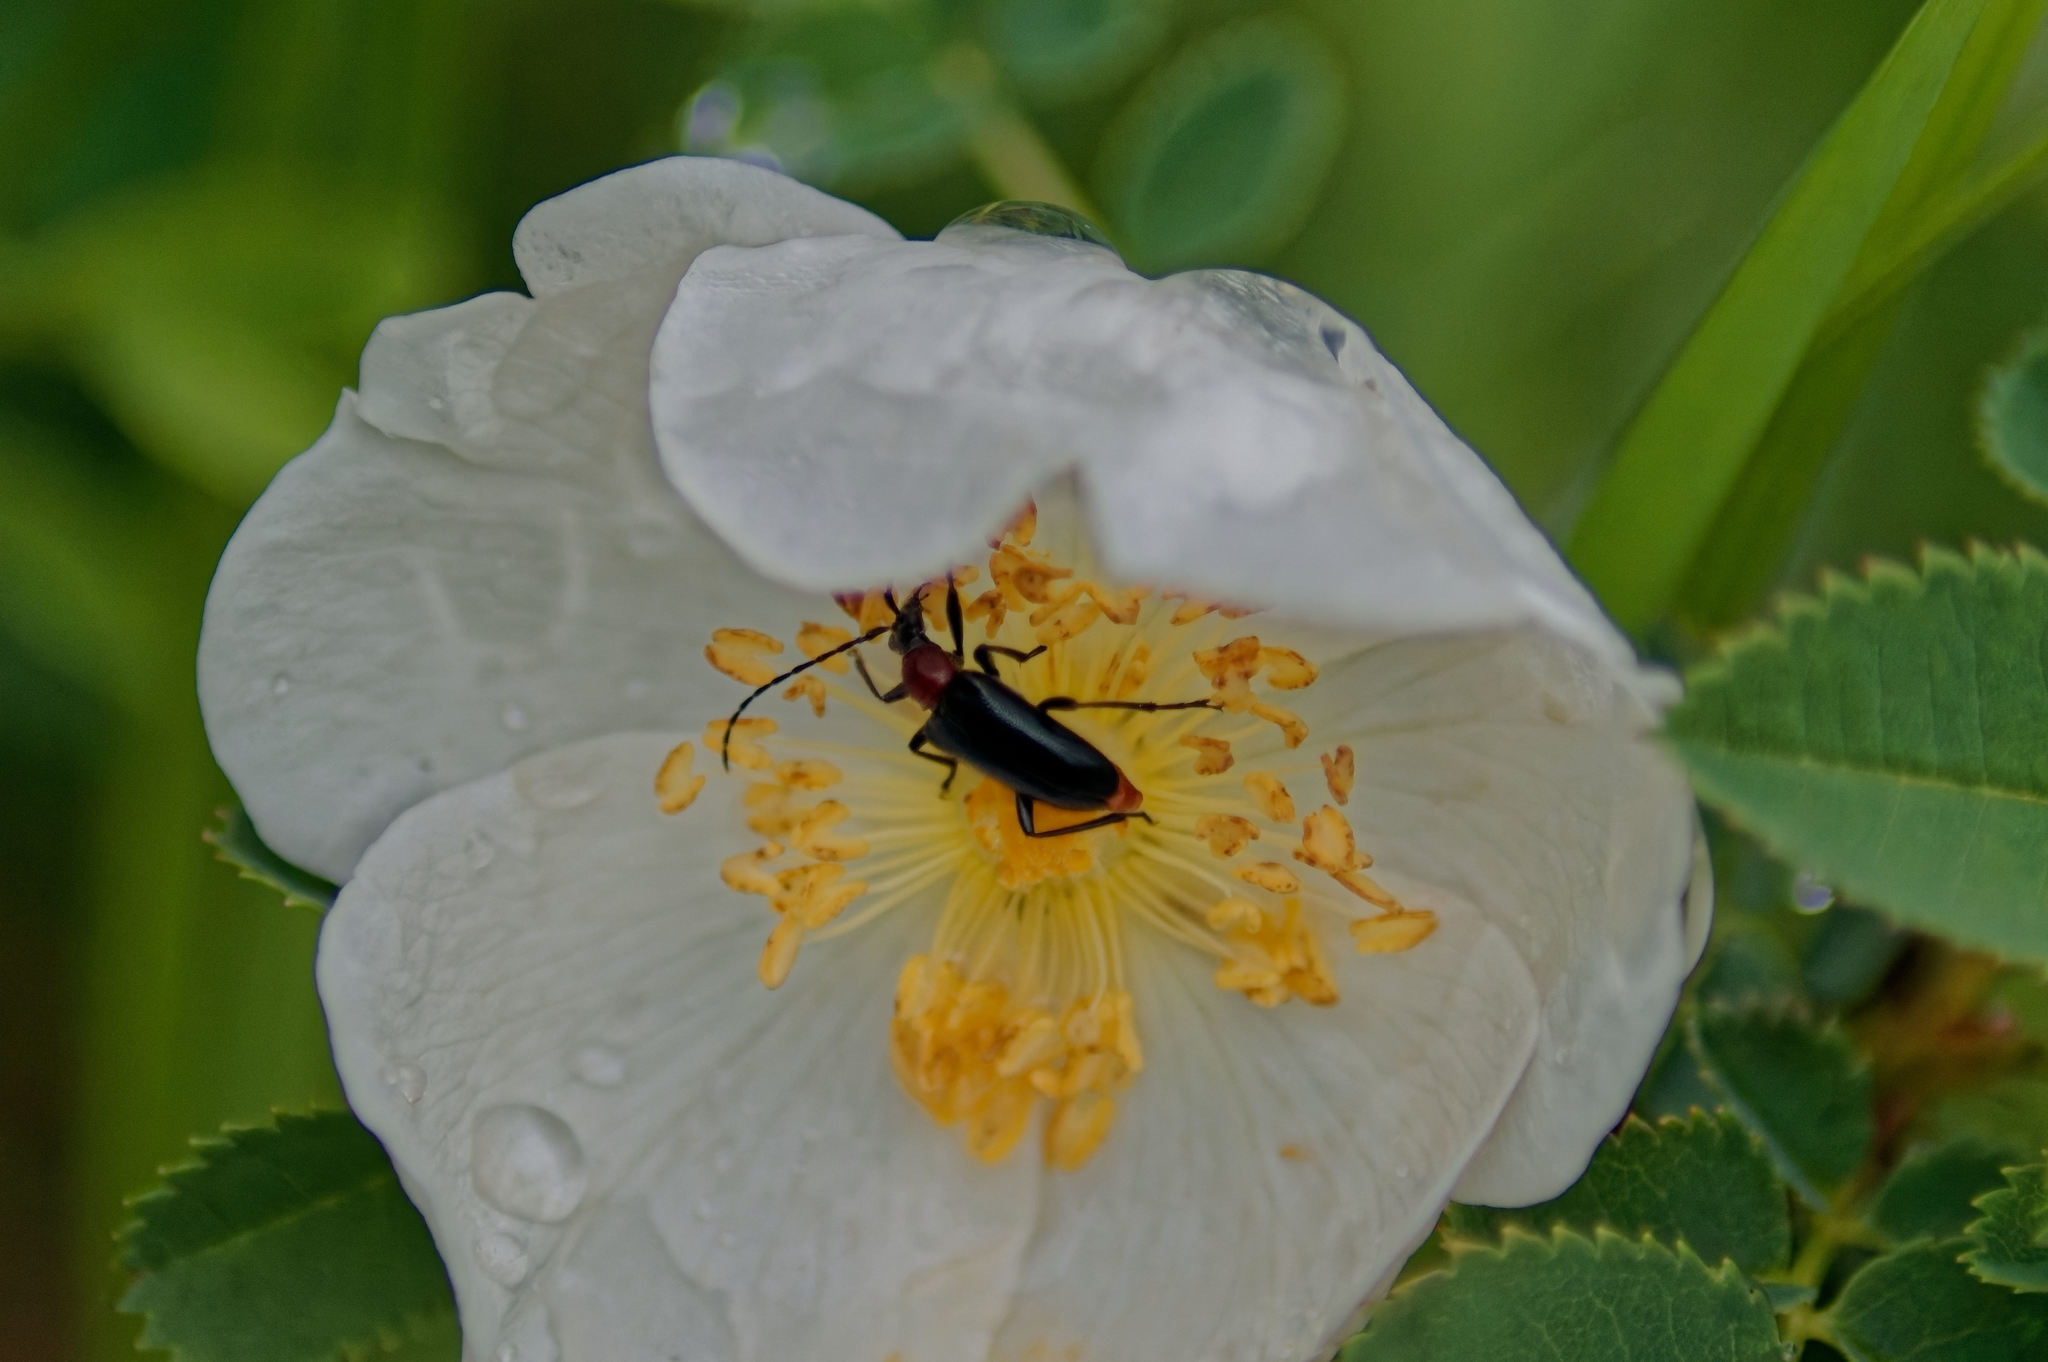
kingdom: Animalia
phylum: Arthropoda
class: Insecta
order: Coleoptera
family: Cerambycidae
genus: Dinoptera
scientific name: Dinoptera collaris
